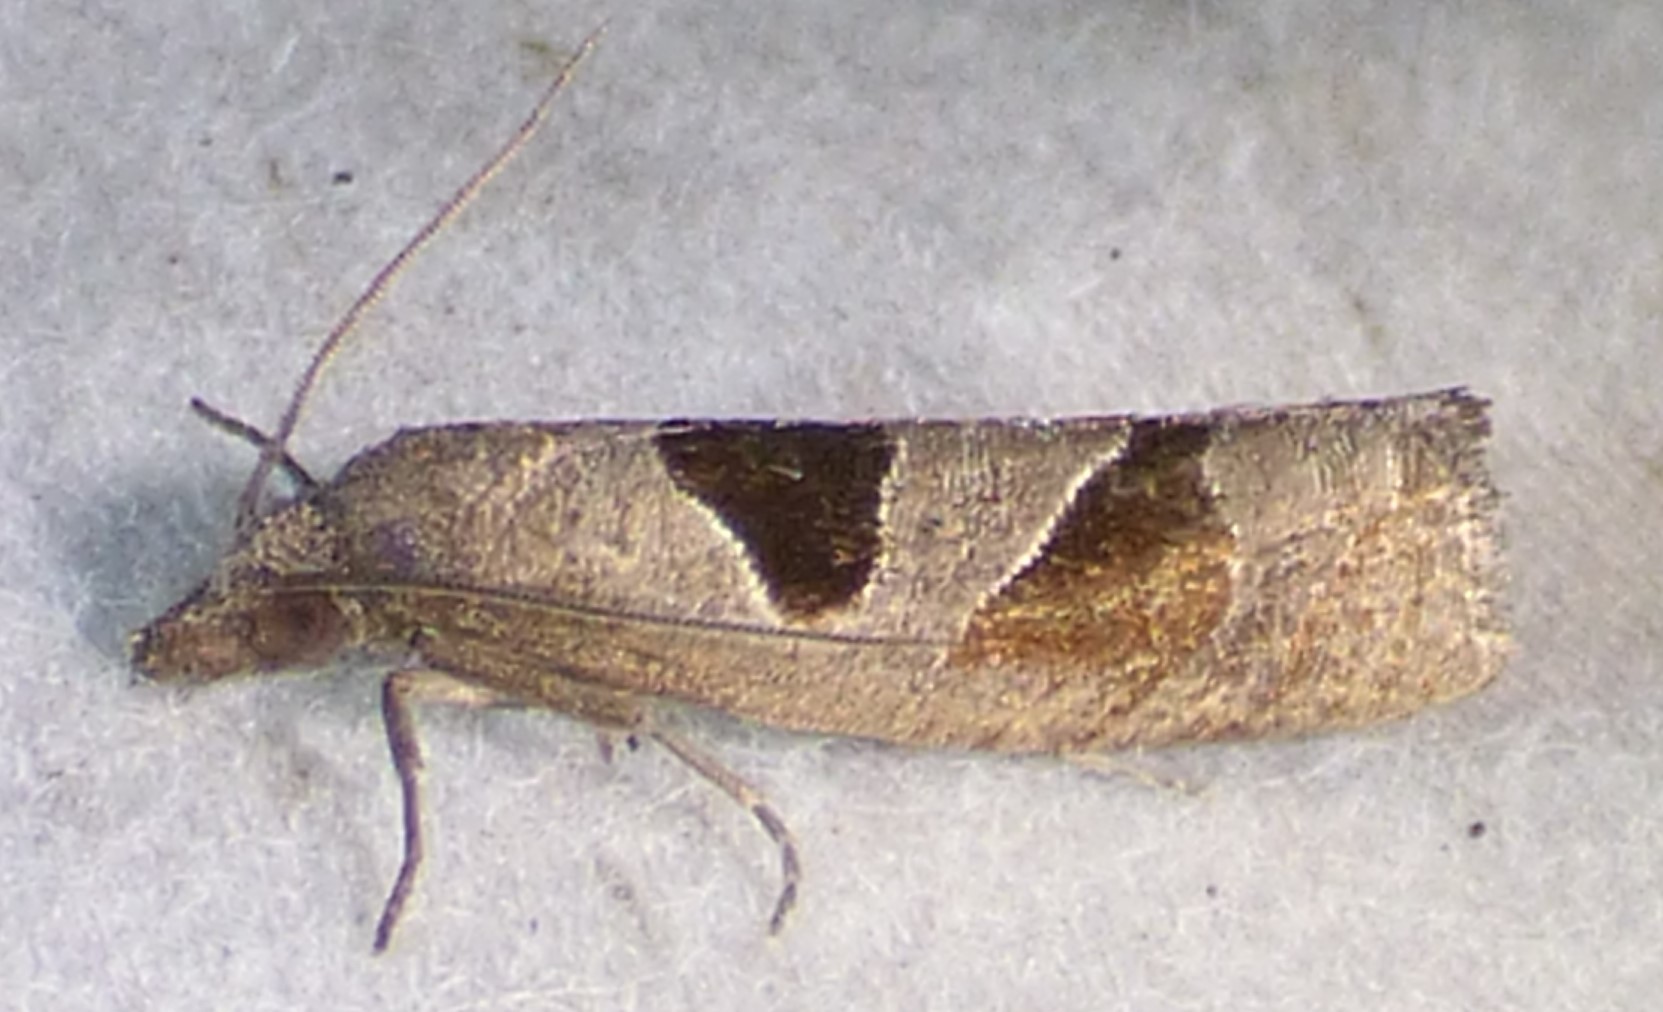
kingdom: Animalia
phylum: Arthropoda
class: Insecta
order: Lepidoptera
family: Tortricidae
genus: Pelochrista
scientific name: Pelochrista dorsisignatana
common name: Triangle-backed pelochrista moth
